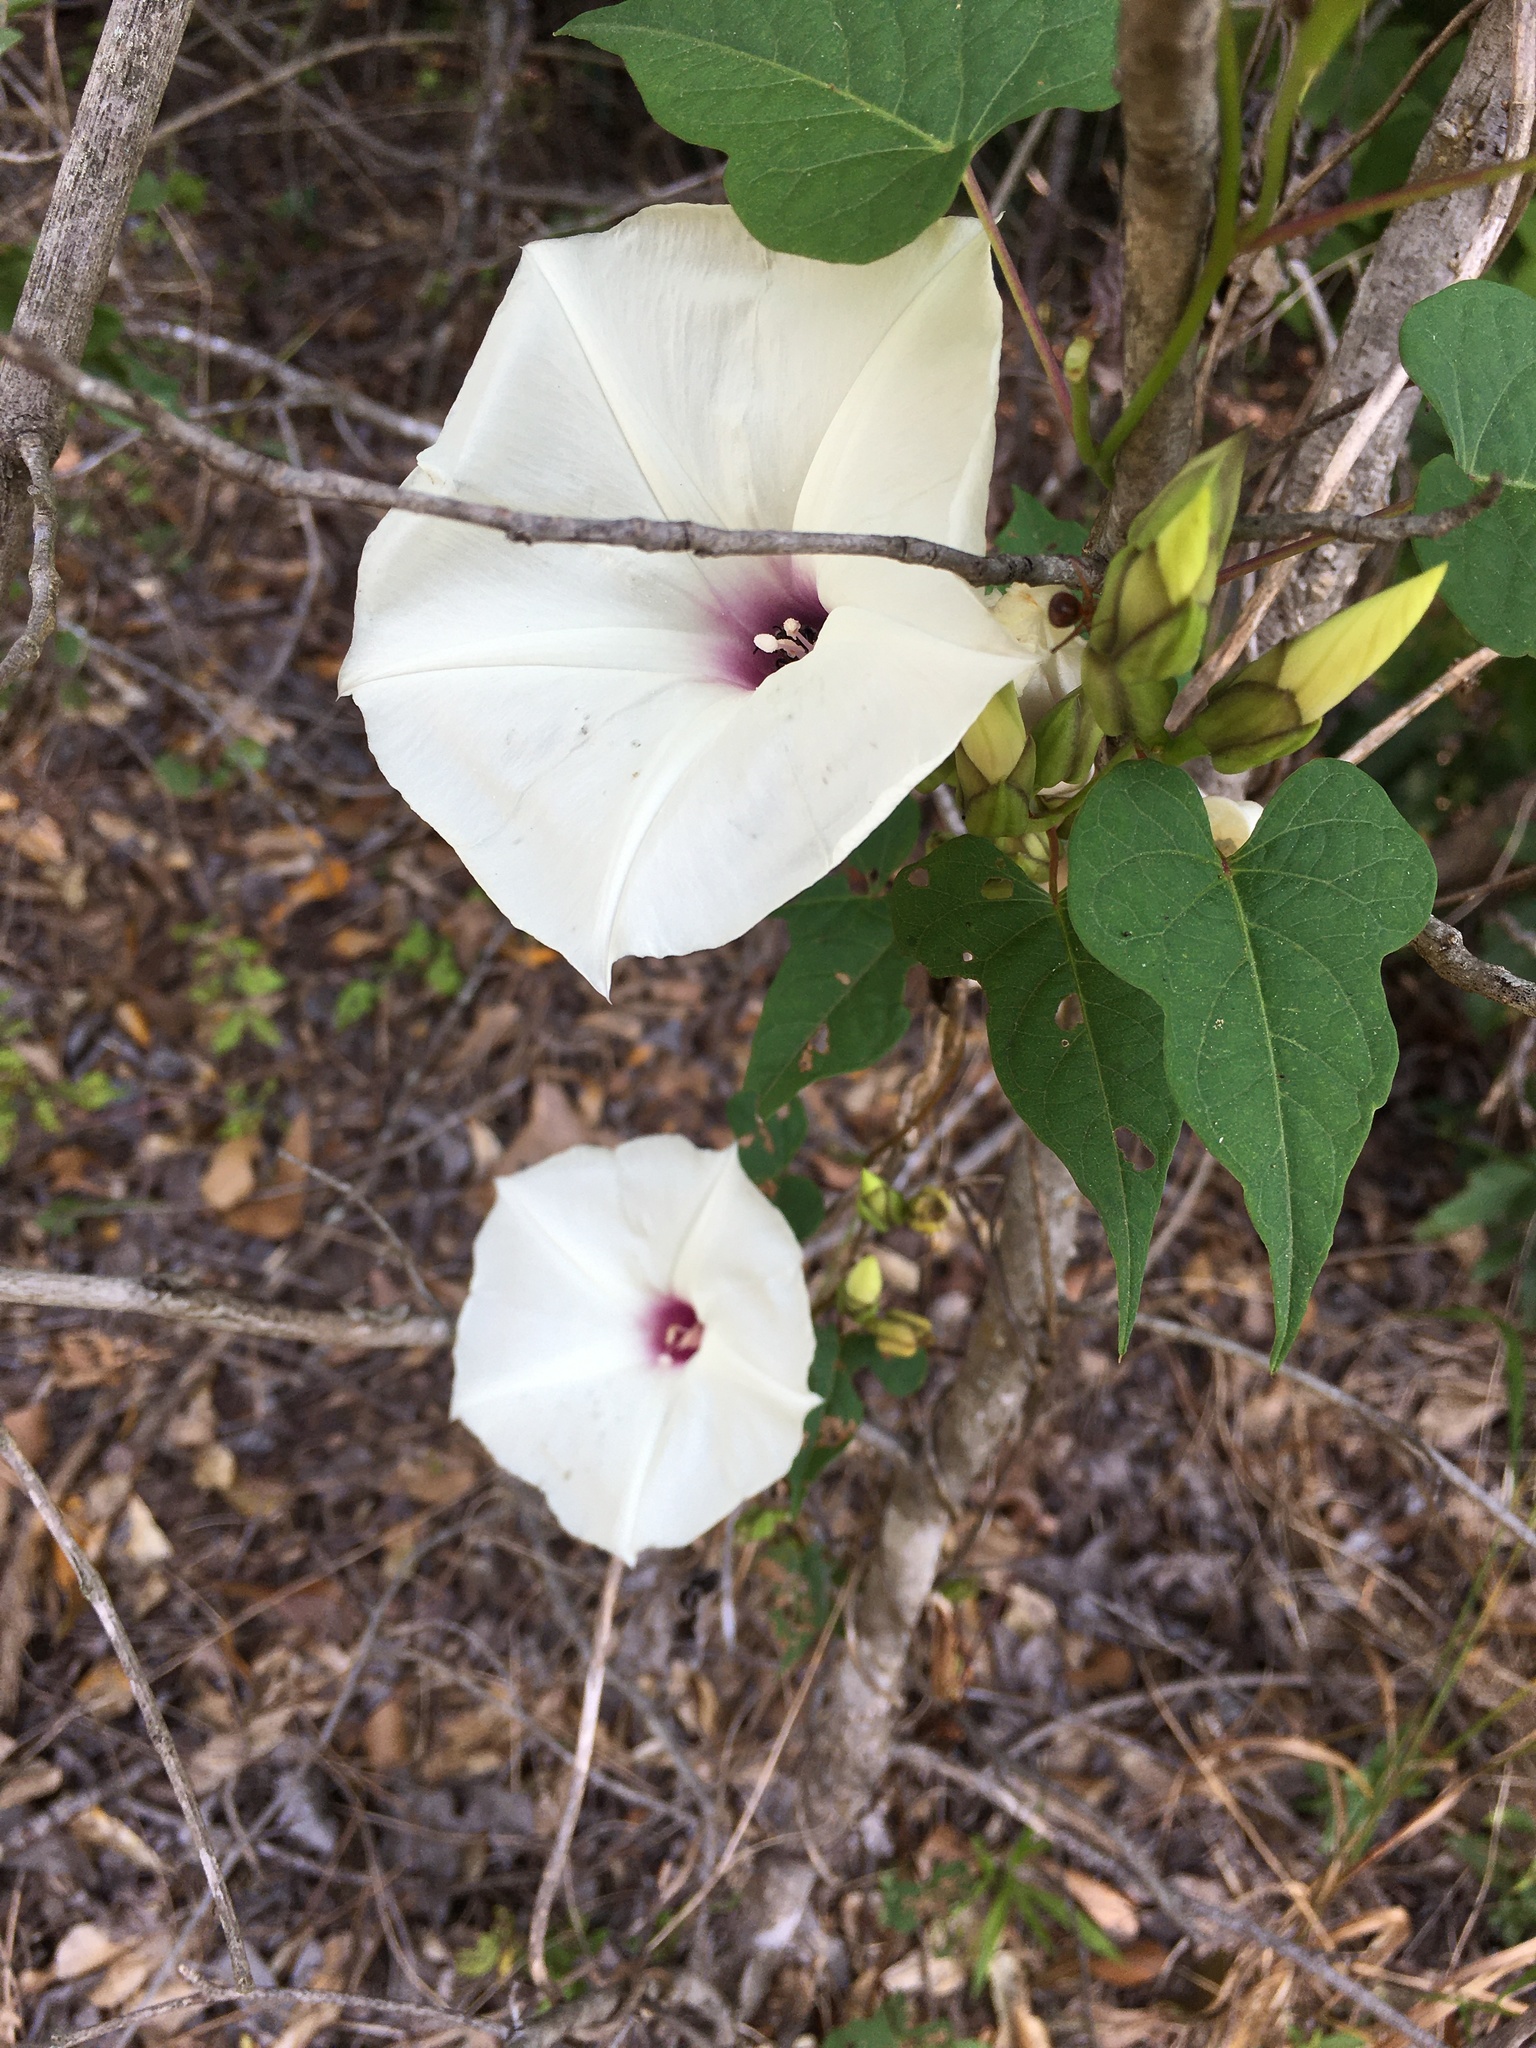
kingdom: Plantae
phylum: Tracheophyta
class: Magnoliopsida
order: Solanales
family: Convolvulaceae
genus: Ipomoea
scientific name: Ipomoea pandurata
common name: Man-of-the-earth
